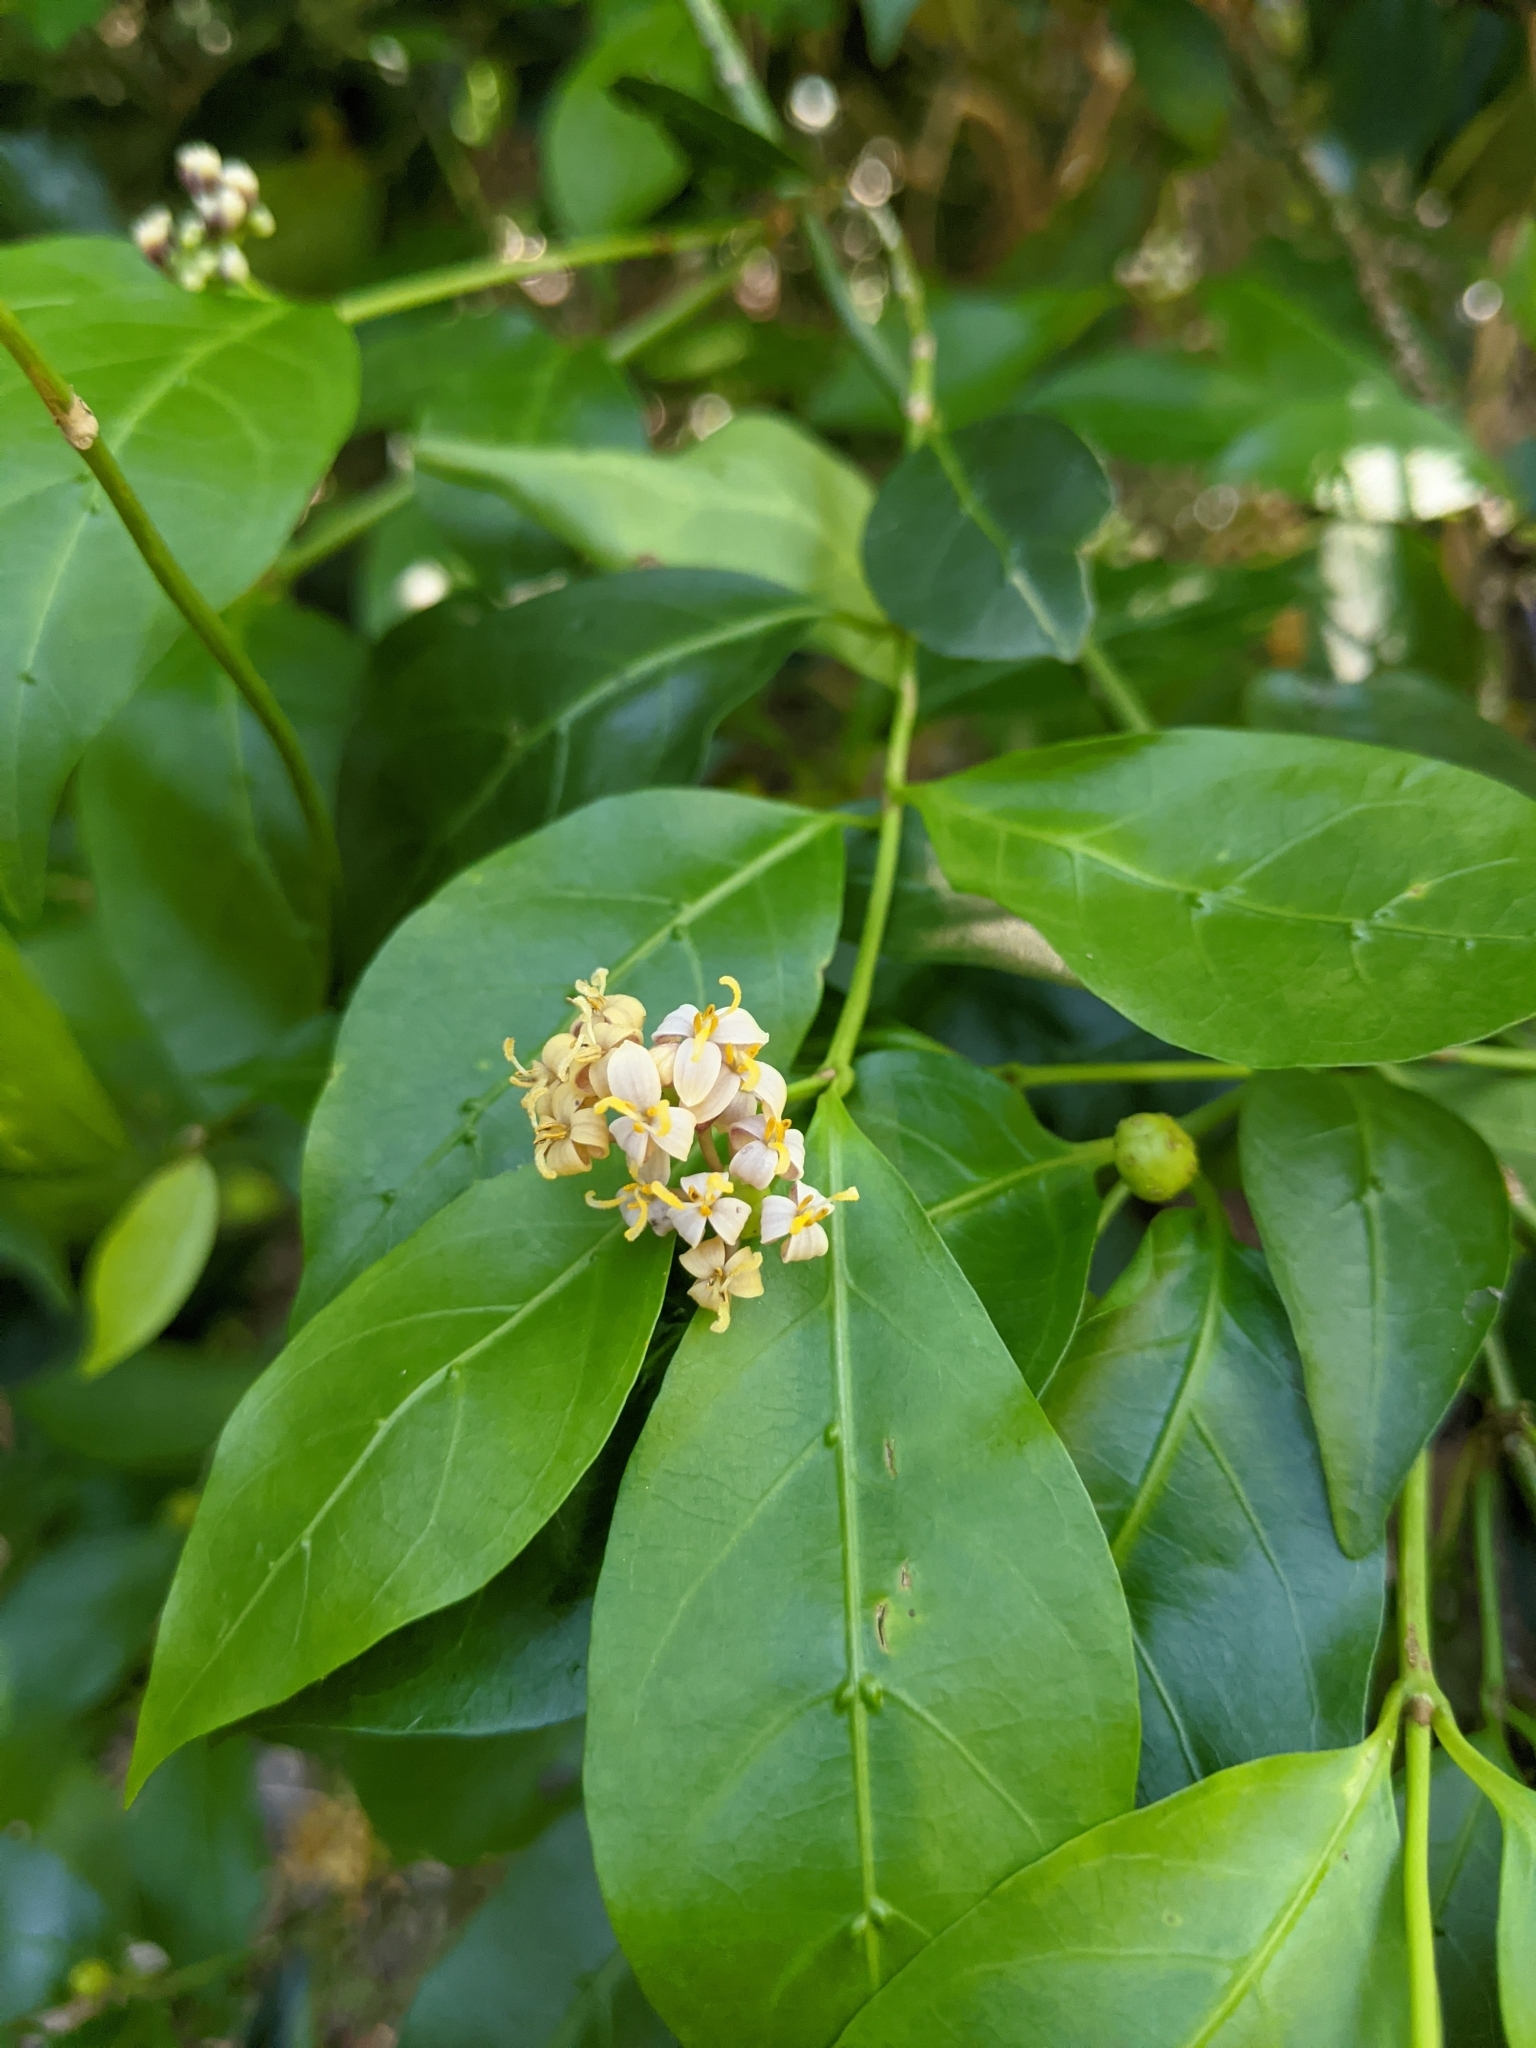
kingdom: Plantae
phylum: Tracheophyta
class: Magnoliopsida
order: Gentianales
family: Rubiaceae
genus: Gynochthodes
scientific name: Gynochthodes jasminoides
